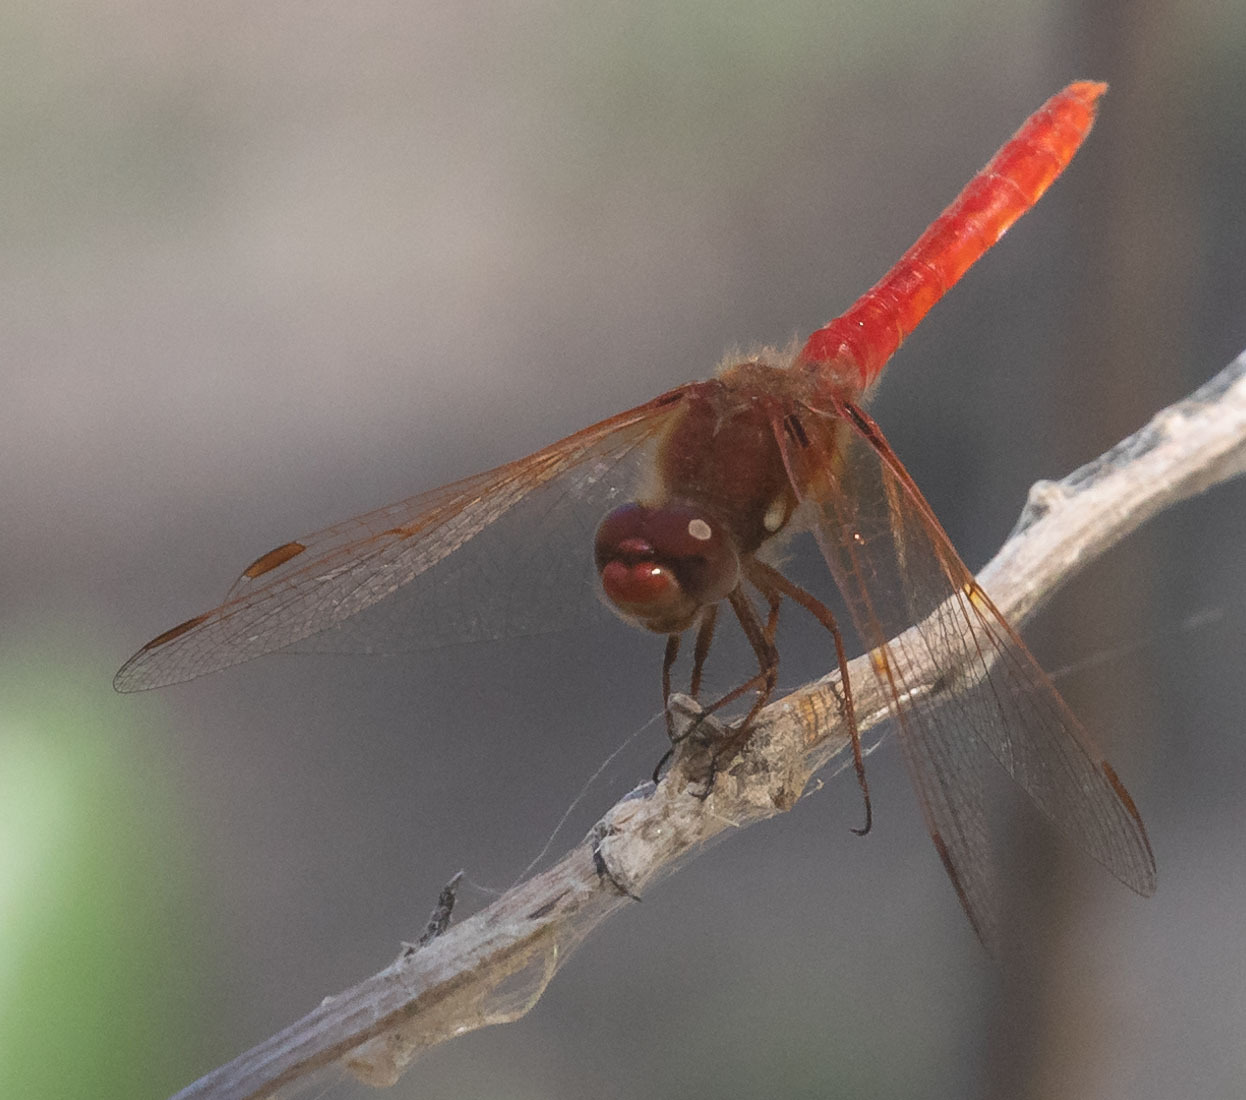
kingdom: Animalia
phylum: Arthropoda
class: Insecta
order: Odonata
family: Libellulidae
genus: Sympetrum
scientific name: Sympetrum illotum
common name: Cardinal meadowhawk
